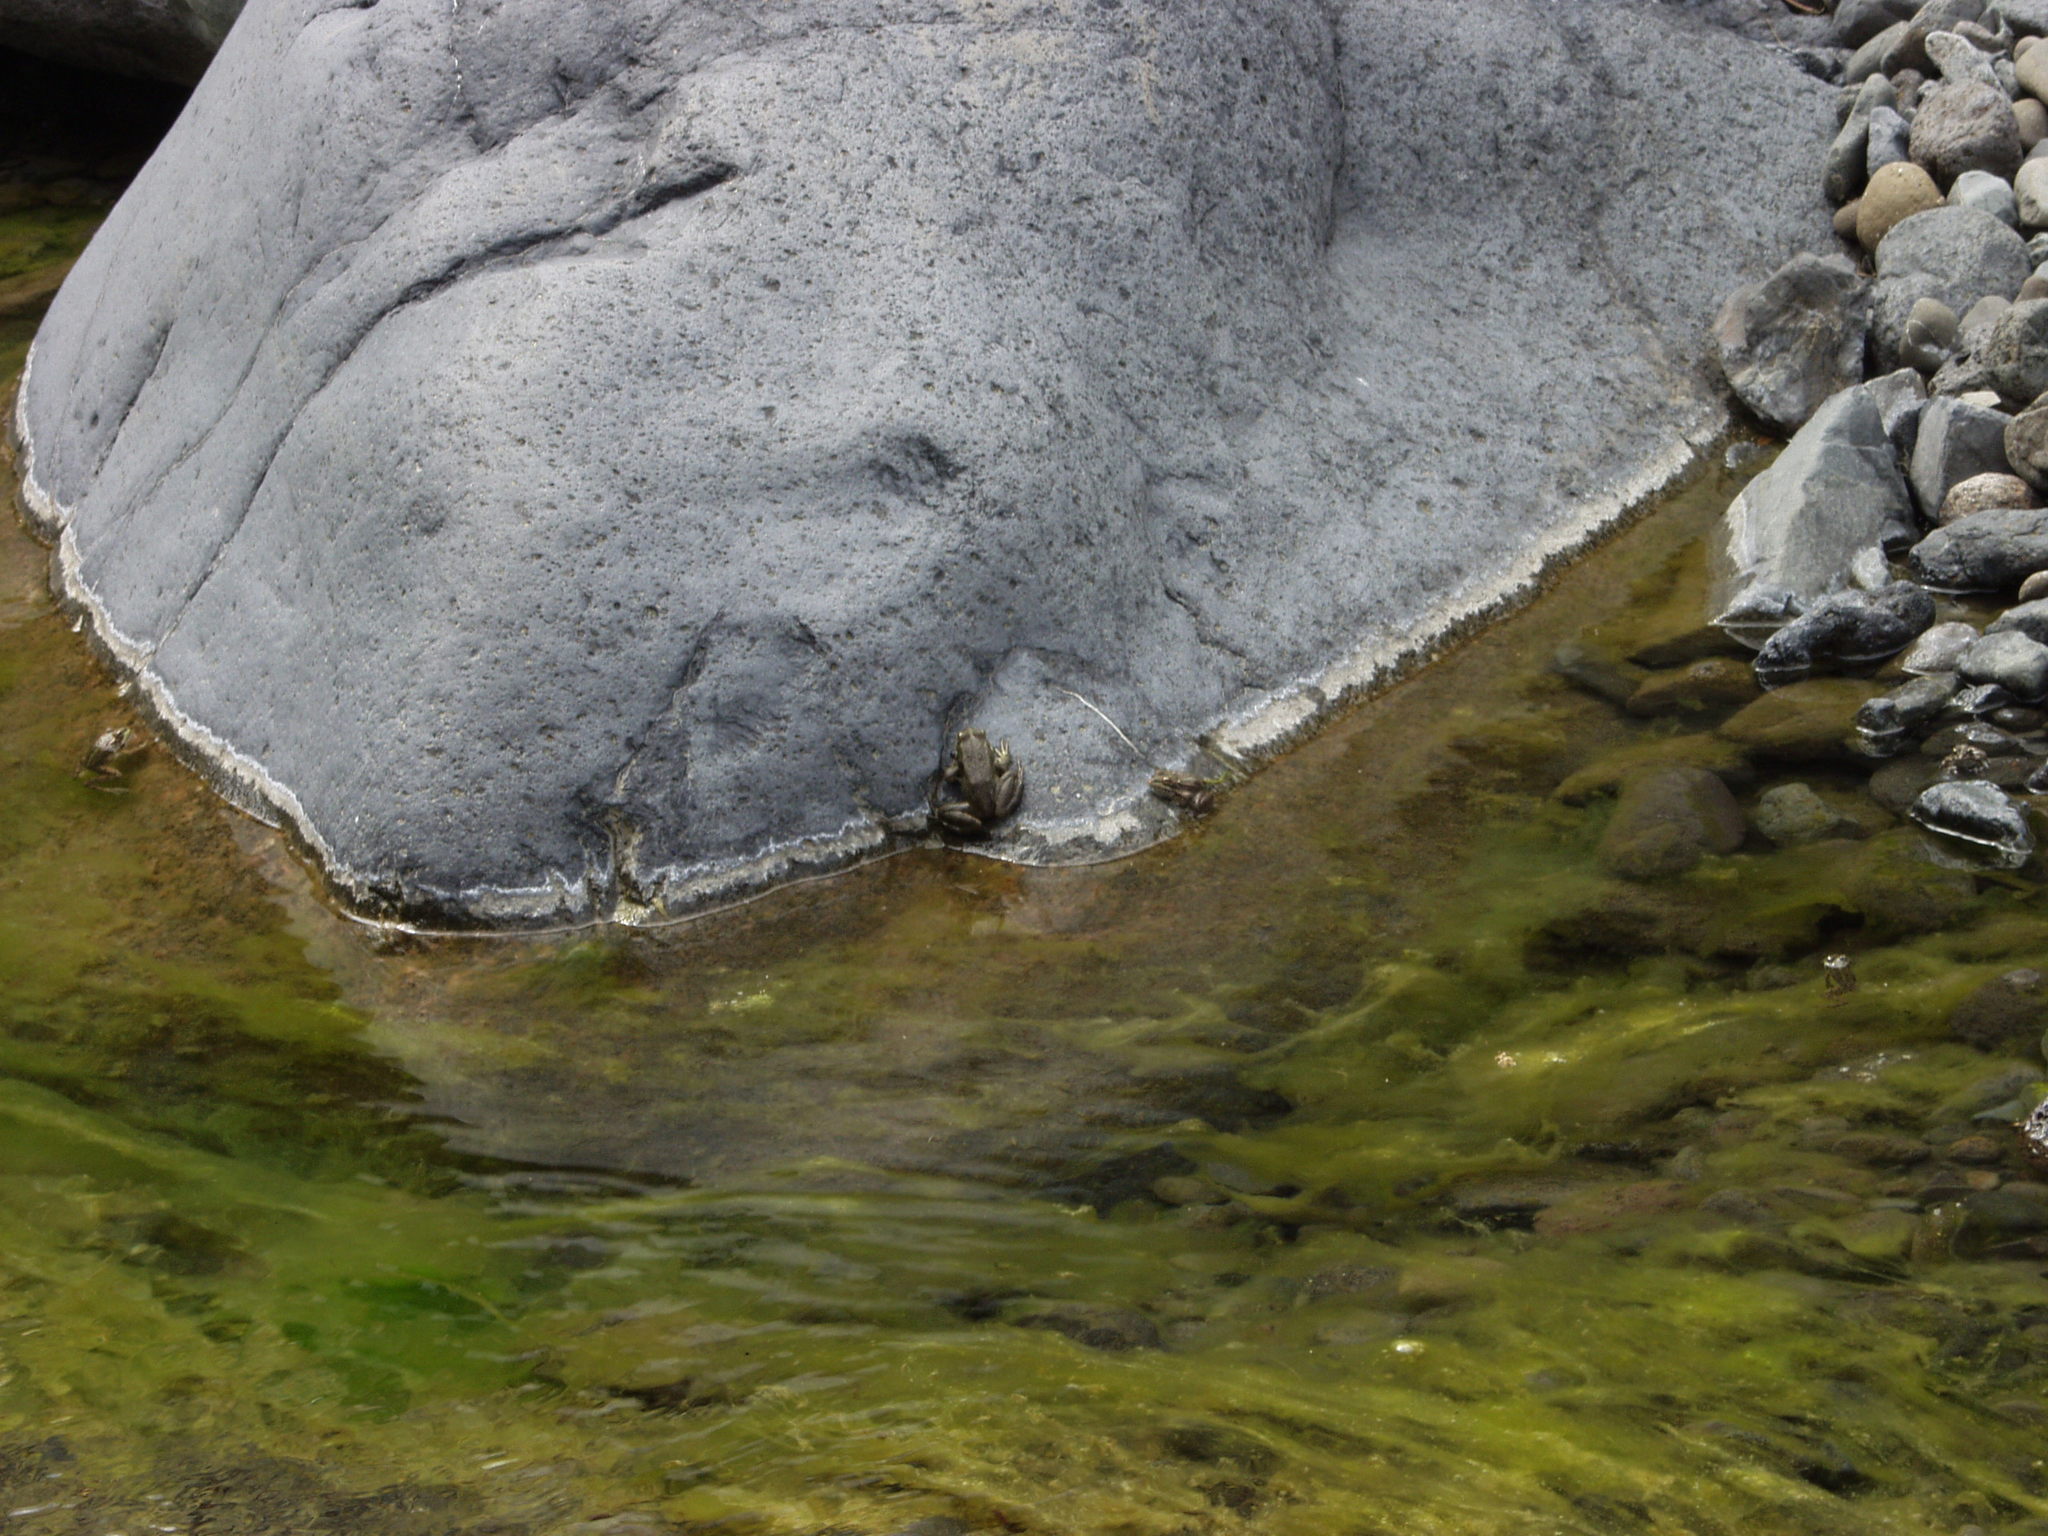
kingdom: Animalia
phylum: Chordata
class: Amphibia
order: Anura
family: Ranidae
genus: Pelophylax
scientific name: Pelophylax perezi
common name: Perez's frog
